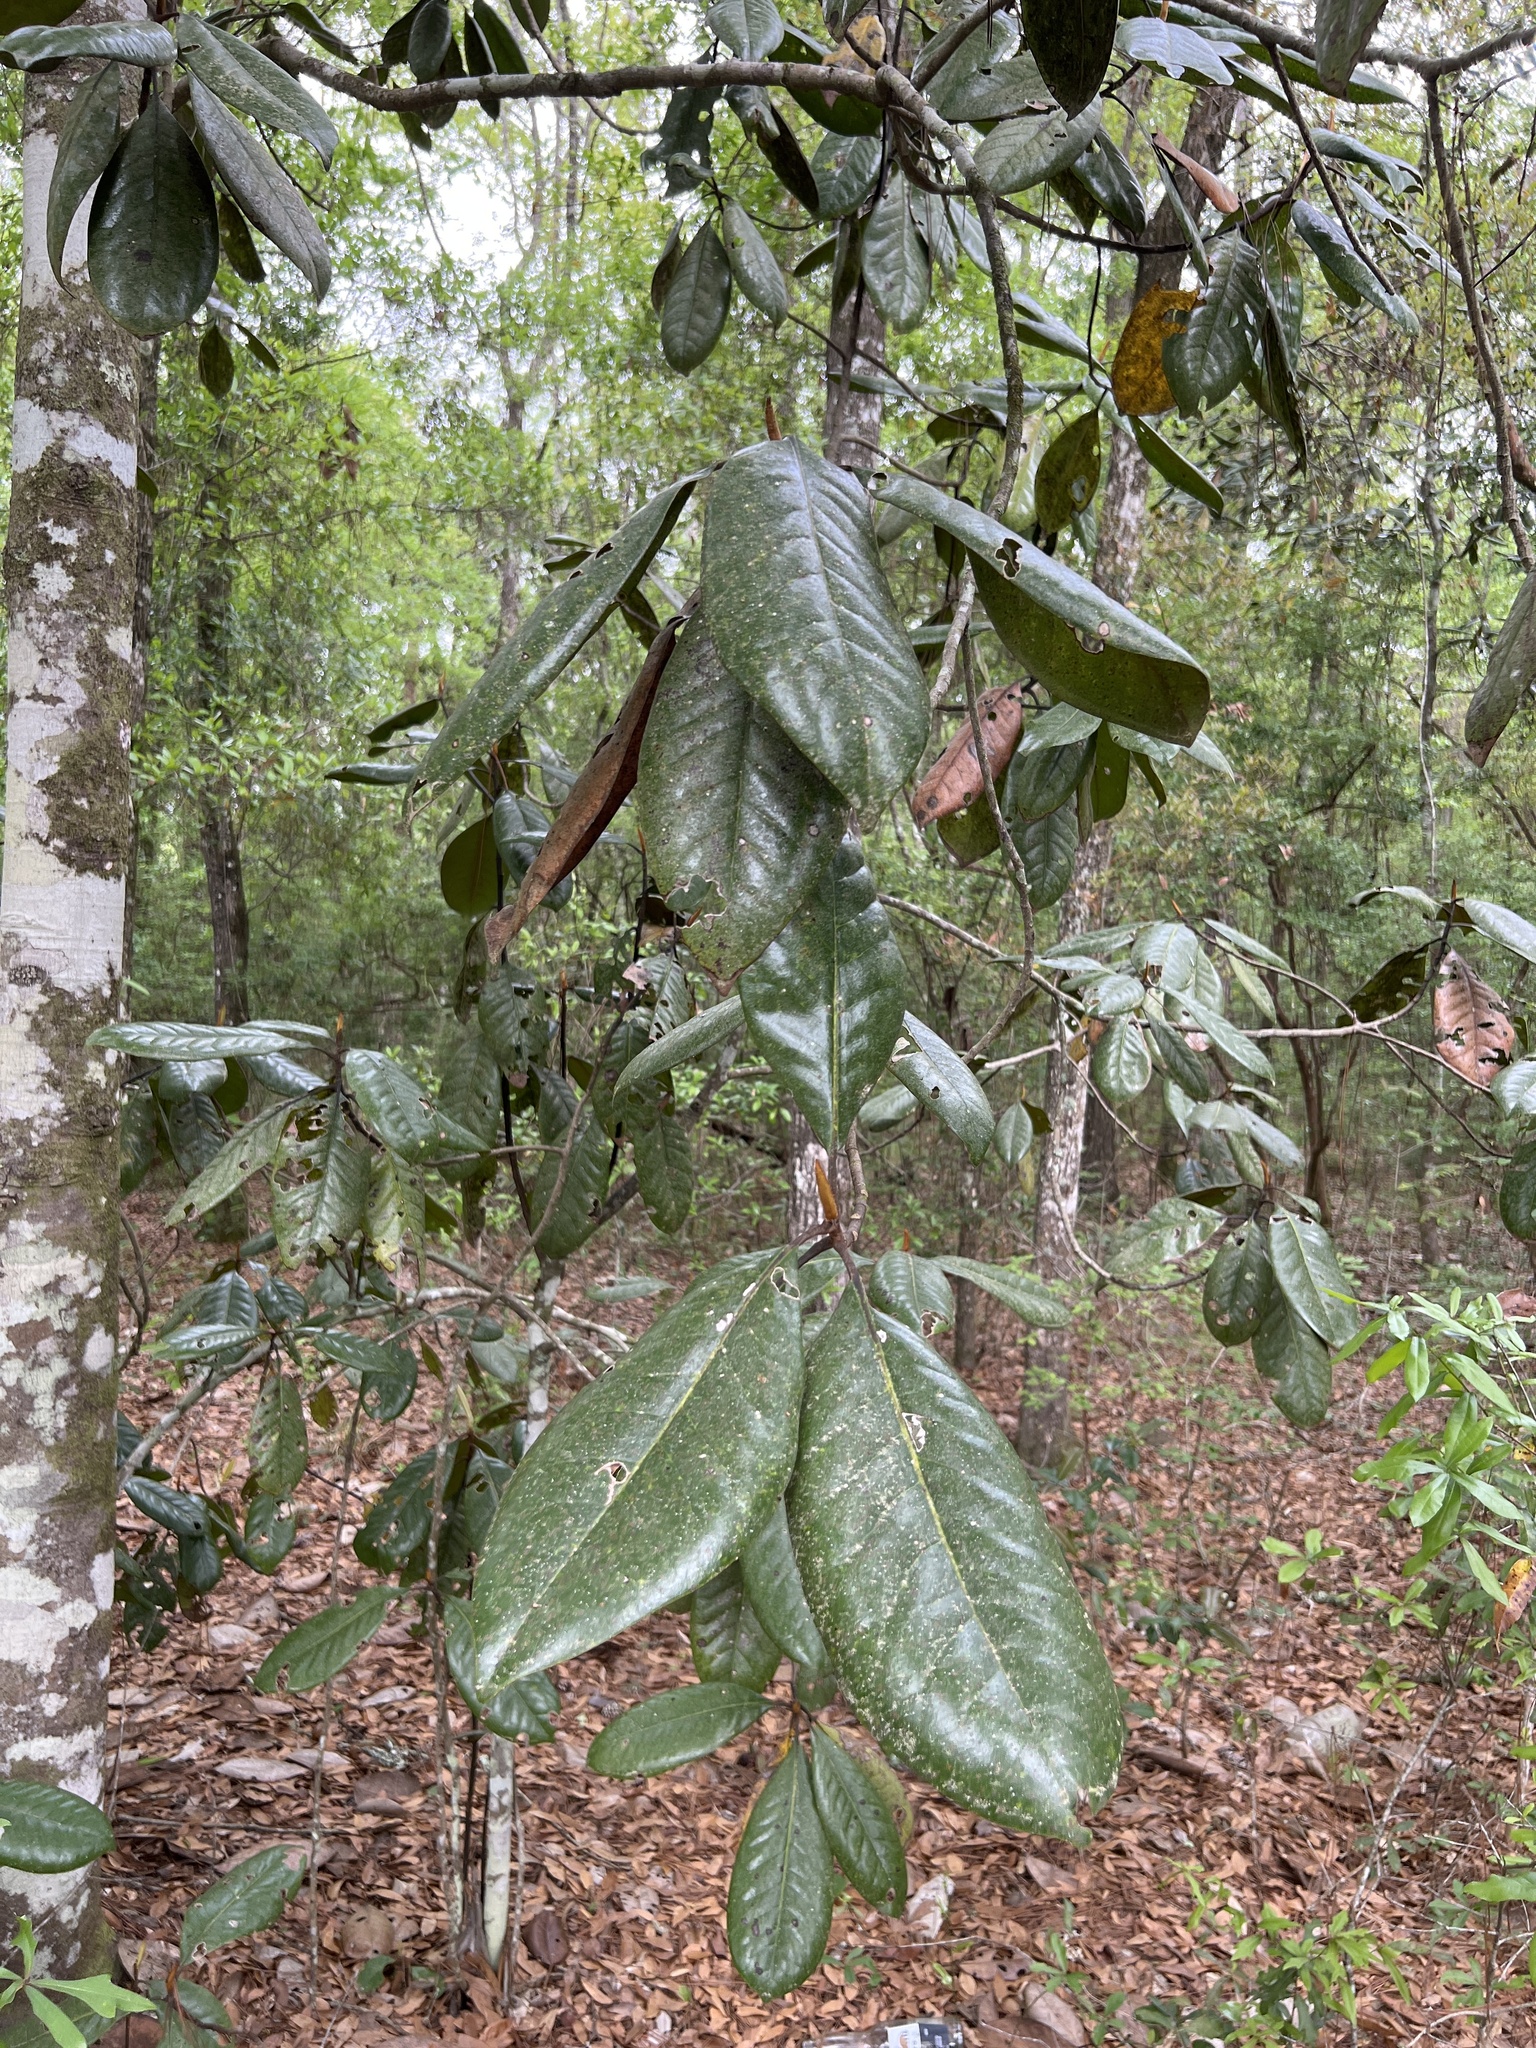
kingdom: Plantae
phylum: Tracheophyta
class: Magnoliopsida
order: Magnoliales
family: Magnoliaceae
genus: Magnolia
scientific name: Magnolia grandiflora
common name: Southern magnolia
